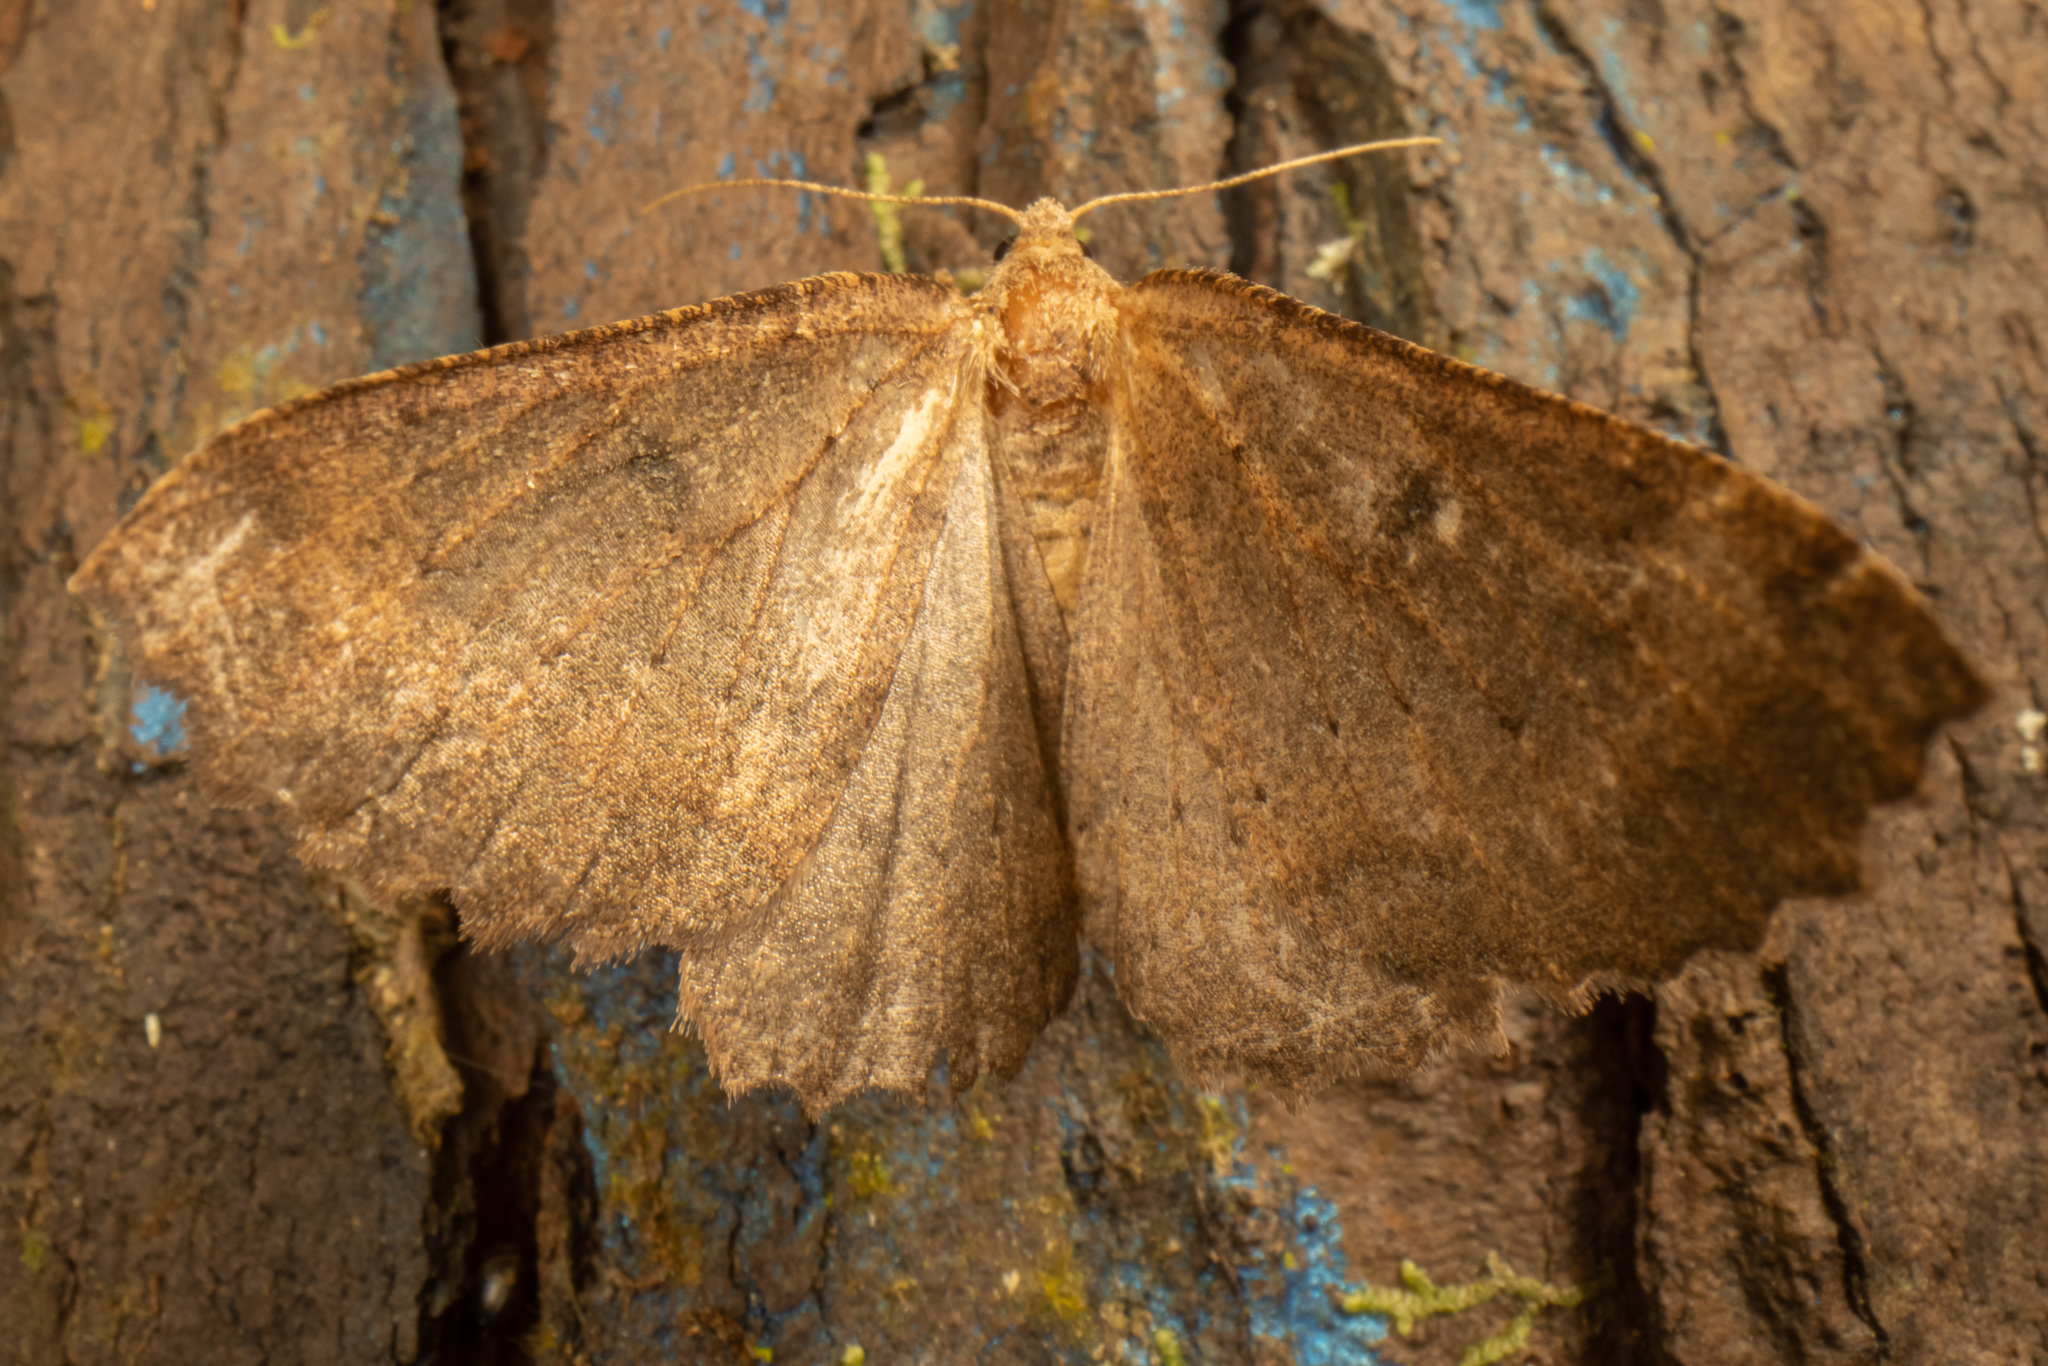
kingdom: Animalia
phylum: Arthropoda
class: Insecta
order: Lepidoptera
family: Geometridae
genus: Cleora
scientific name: Cleora scriptaria
